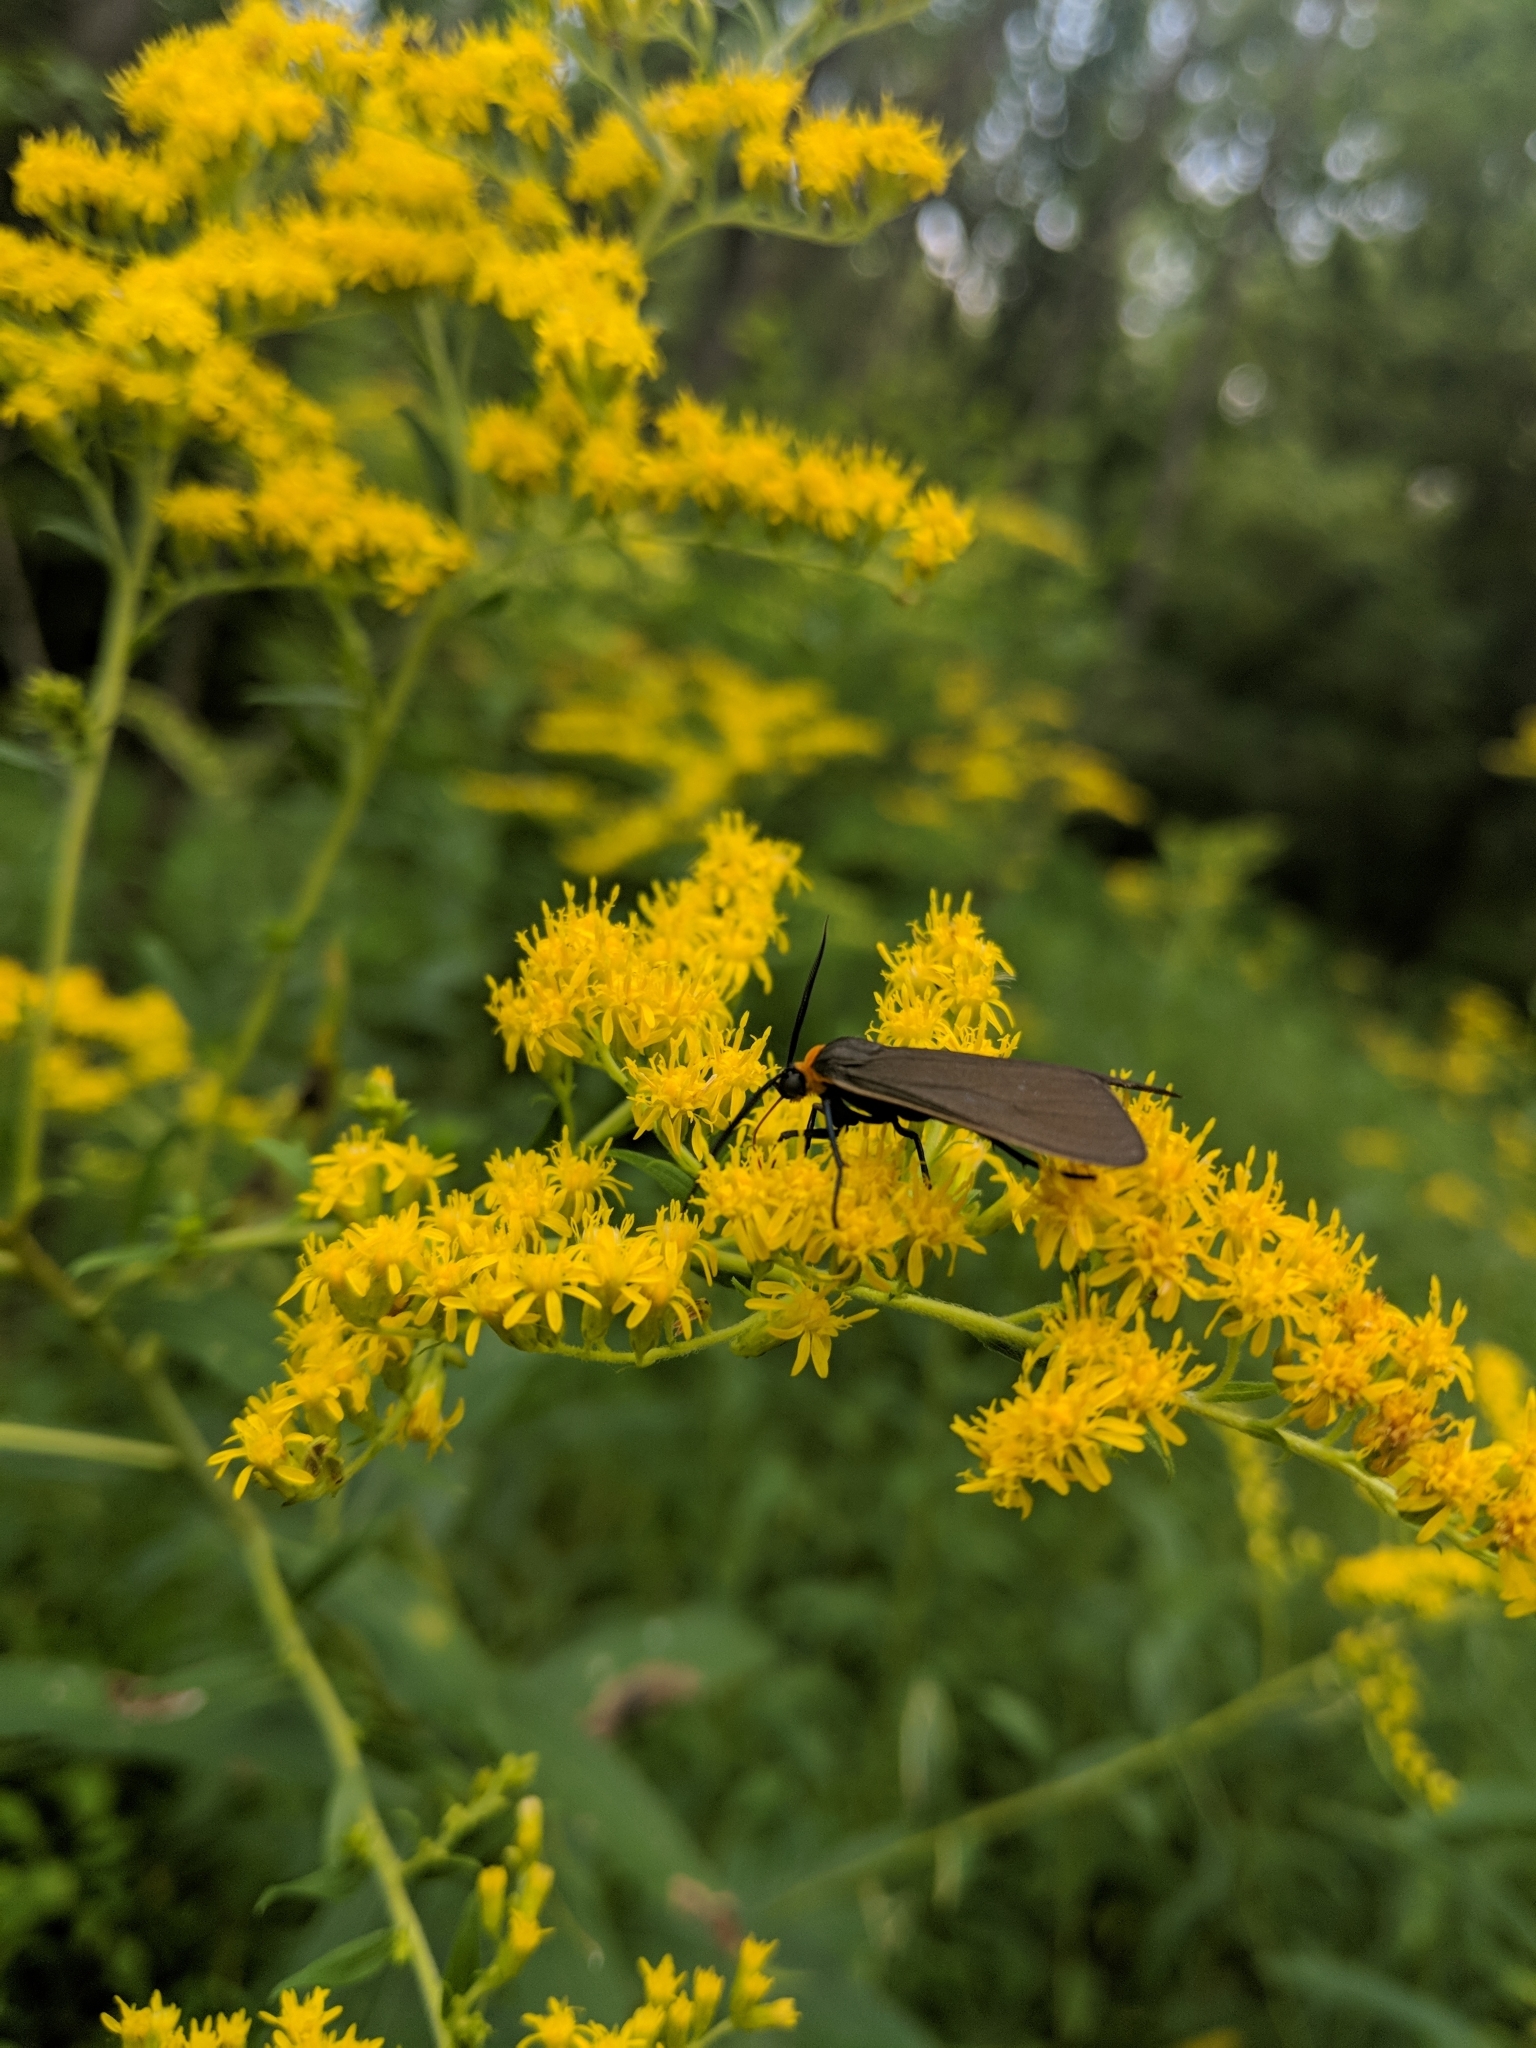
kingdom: Animalia
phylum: Arthropoda
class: Insecta
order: Lepidoptera
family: Erebidae
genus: Cisseps
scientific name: Cisseps fulvicollis
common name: Yellow-collared scape moth
